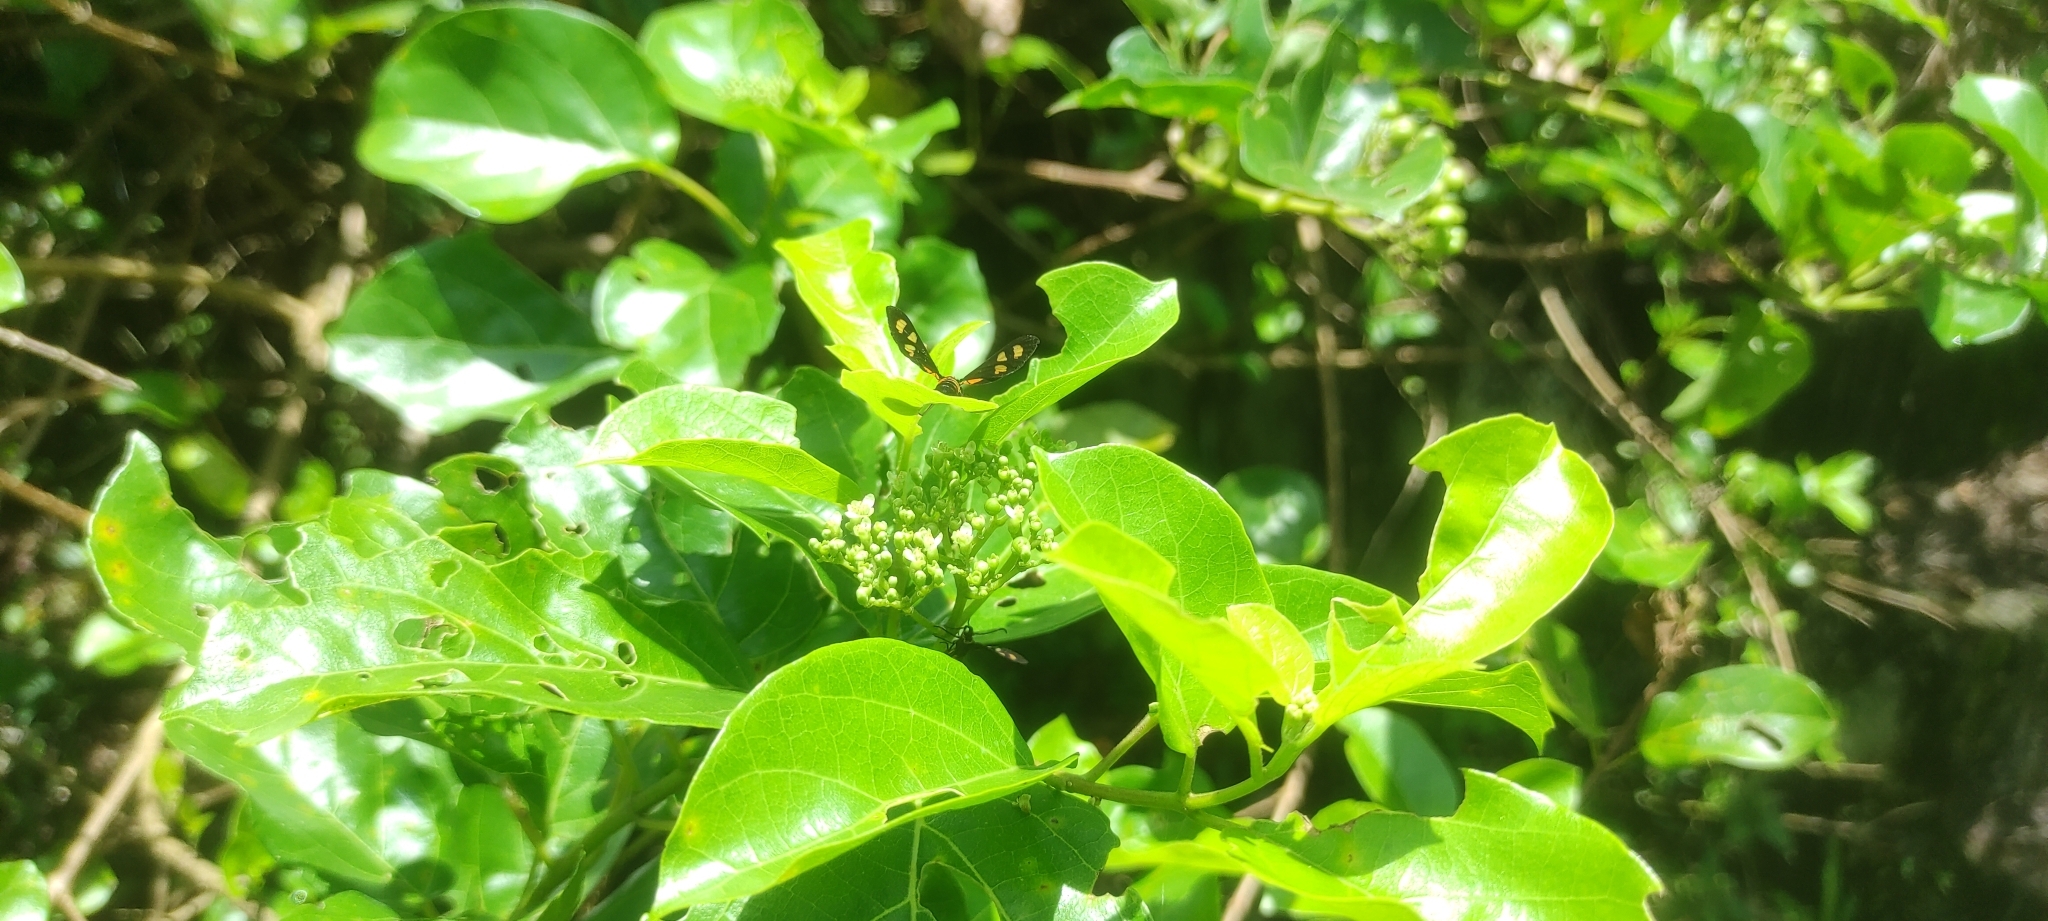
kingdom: Plantae
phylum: Tracheophyta
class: Magnoliopsida
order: Lamiales
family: Lamiaceae
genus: Premna
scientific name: Premna serratifolia
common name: Bastard guelder
